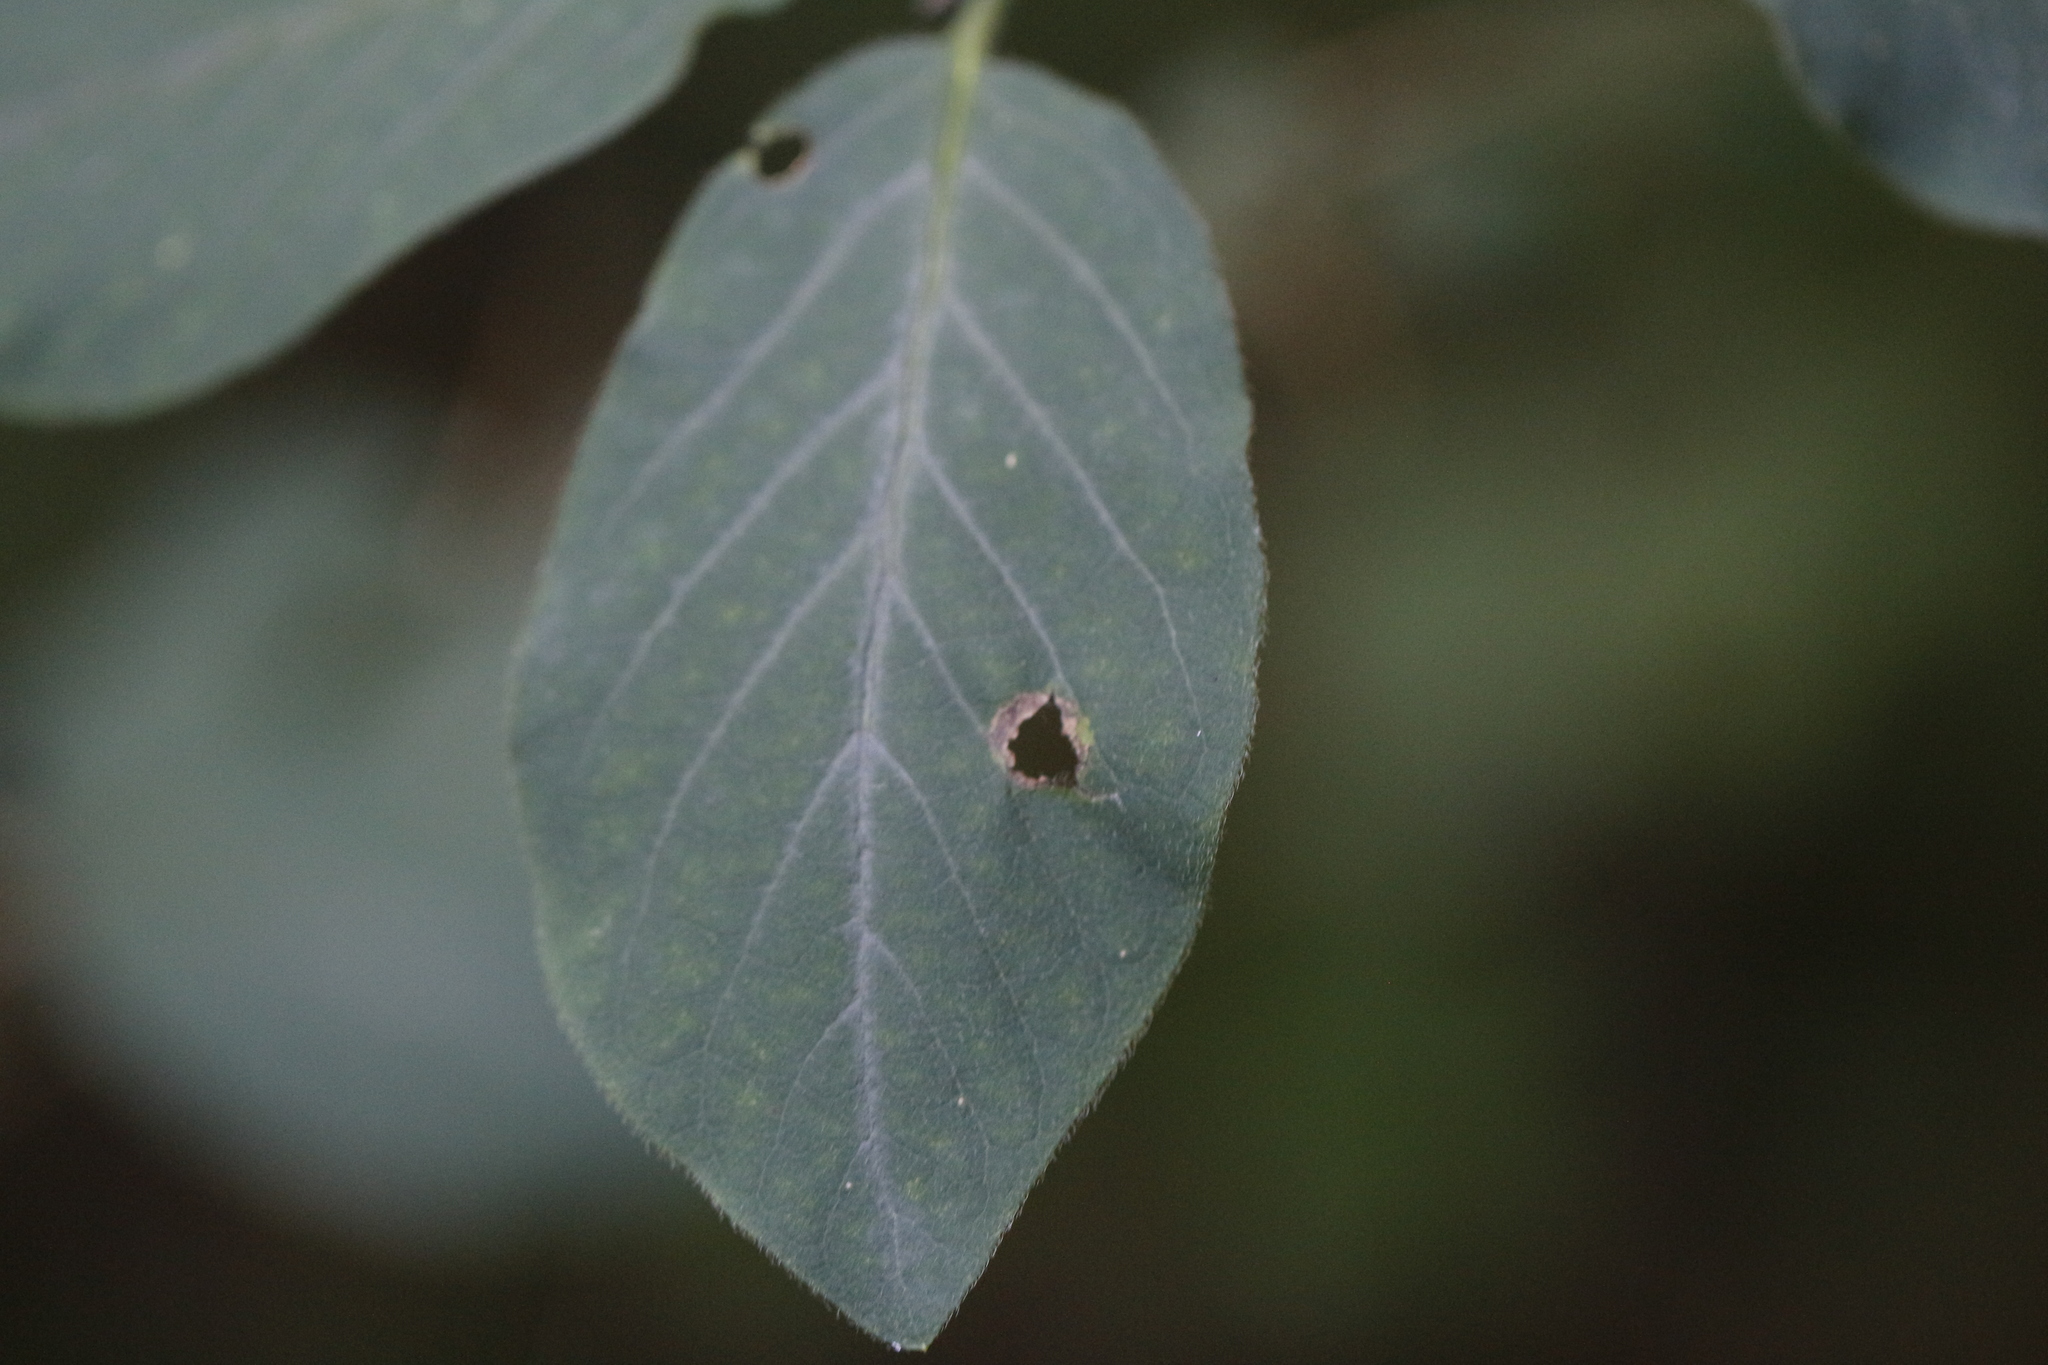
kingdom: Plantae
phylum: Tracheophyta
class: Magnoliopsida
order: Dipsacales
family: Caprifoliaceae
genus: Lonicera
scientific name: Lonicera xylosteum
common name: Fly honeysuckle
